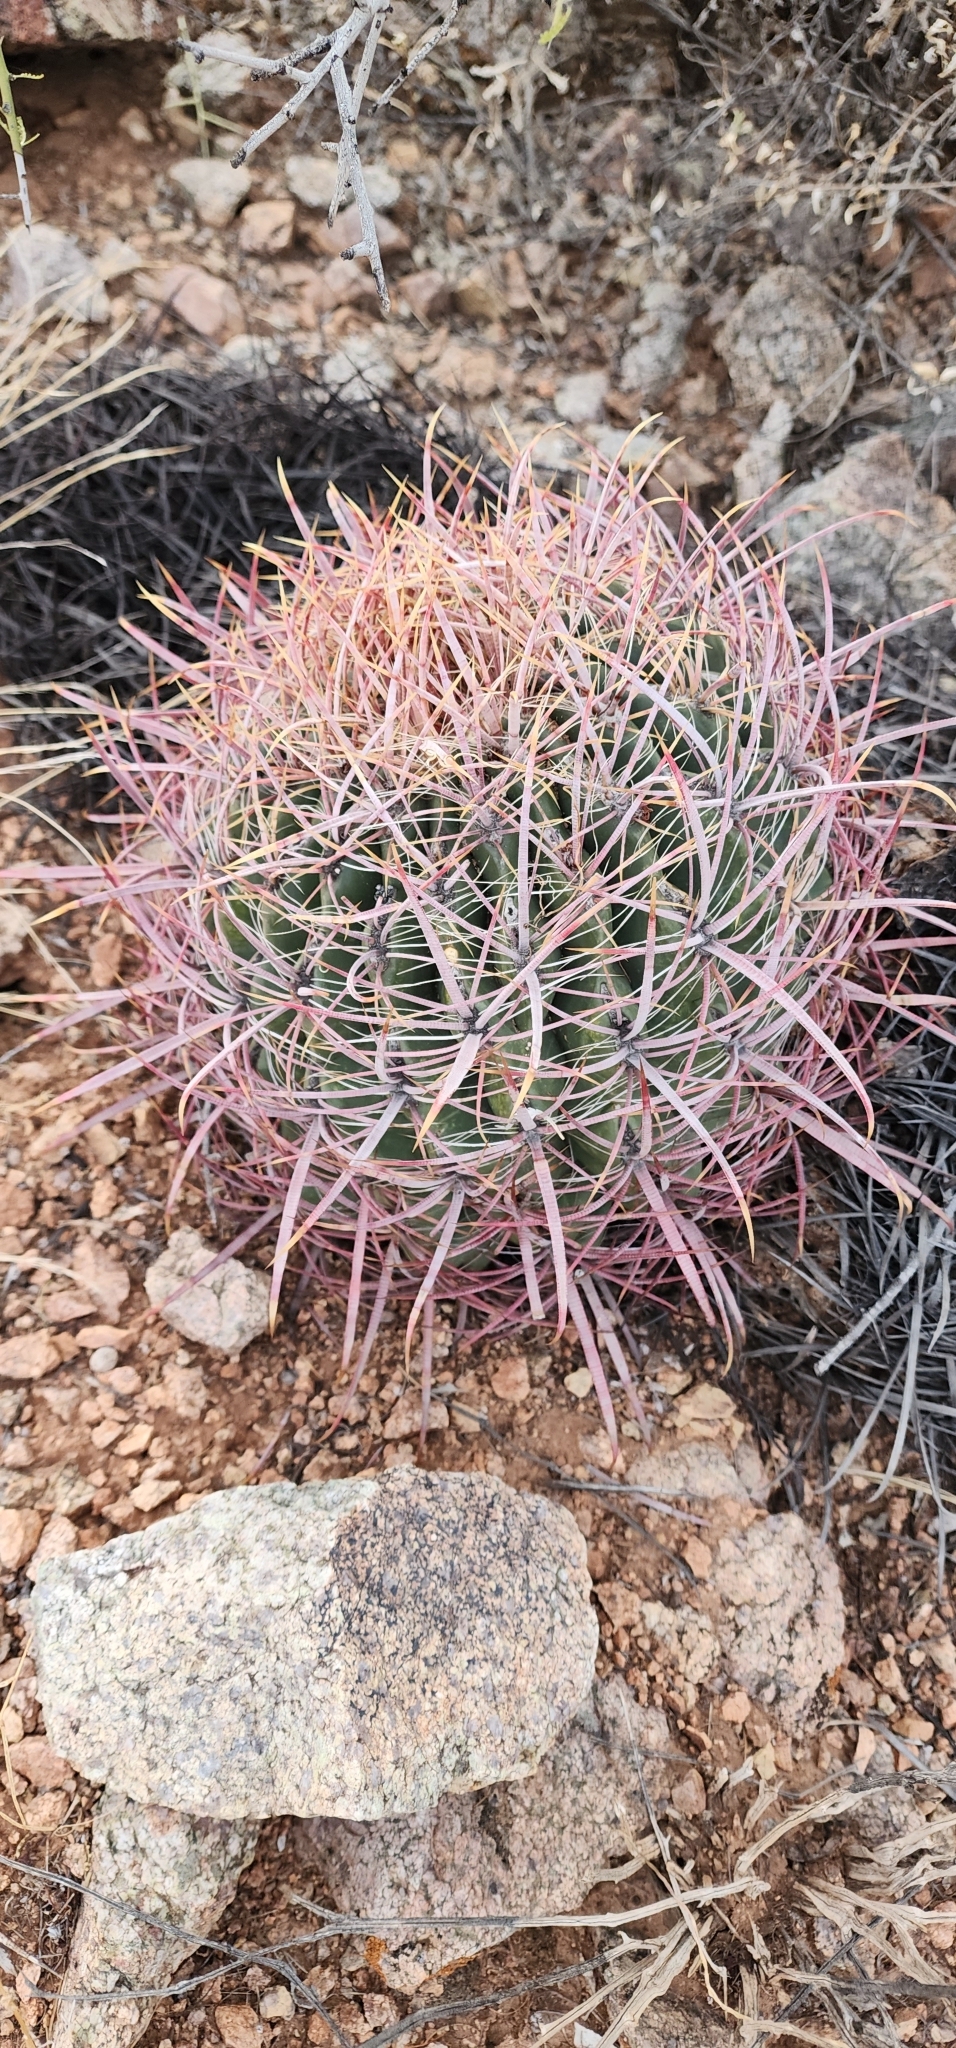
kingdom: Plantae
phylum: Tracheophyta
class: Magnoliopsida
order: Caryophyllales
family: Cactaceae
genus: Ferocactus
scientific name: Ferocactus cylindraceus
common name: California barrel cactus
